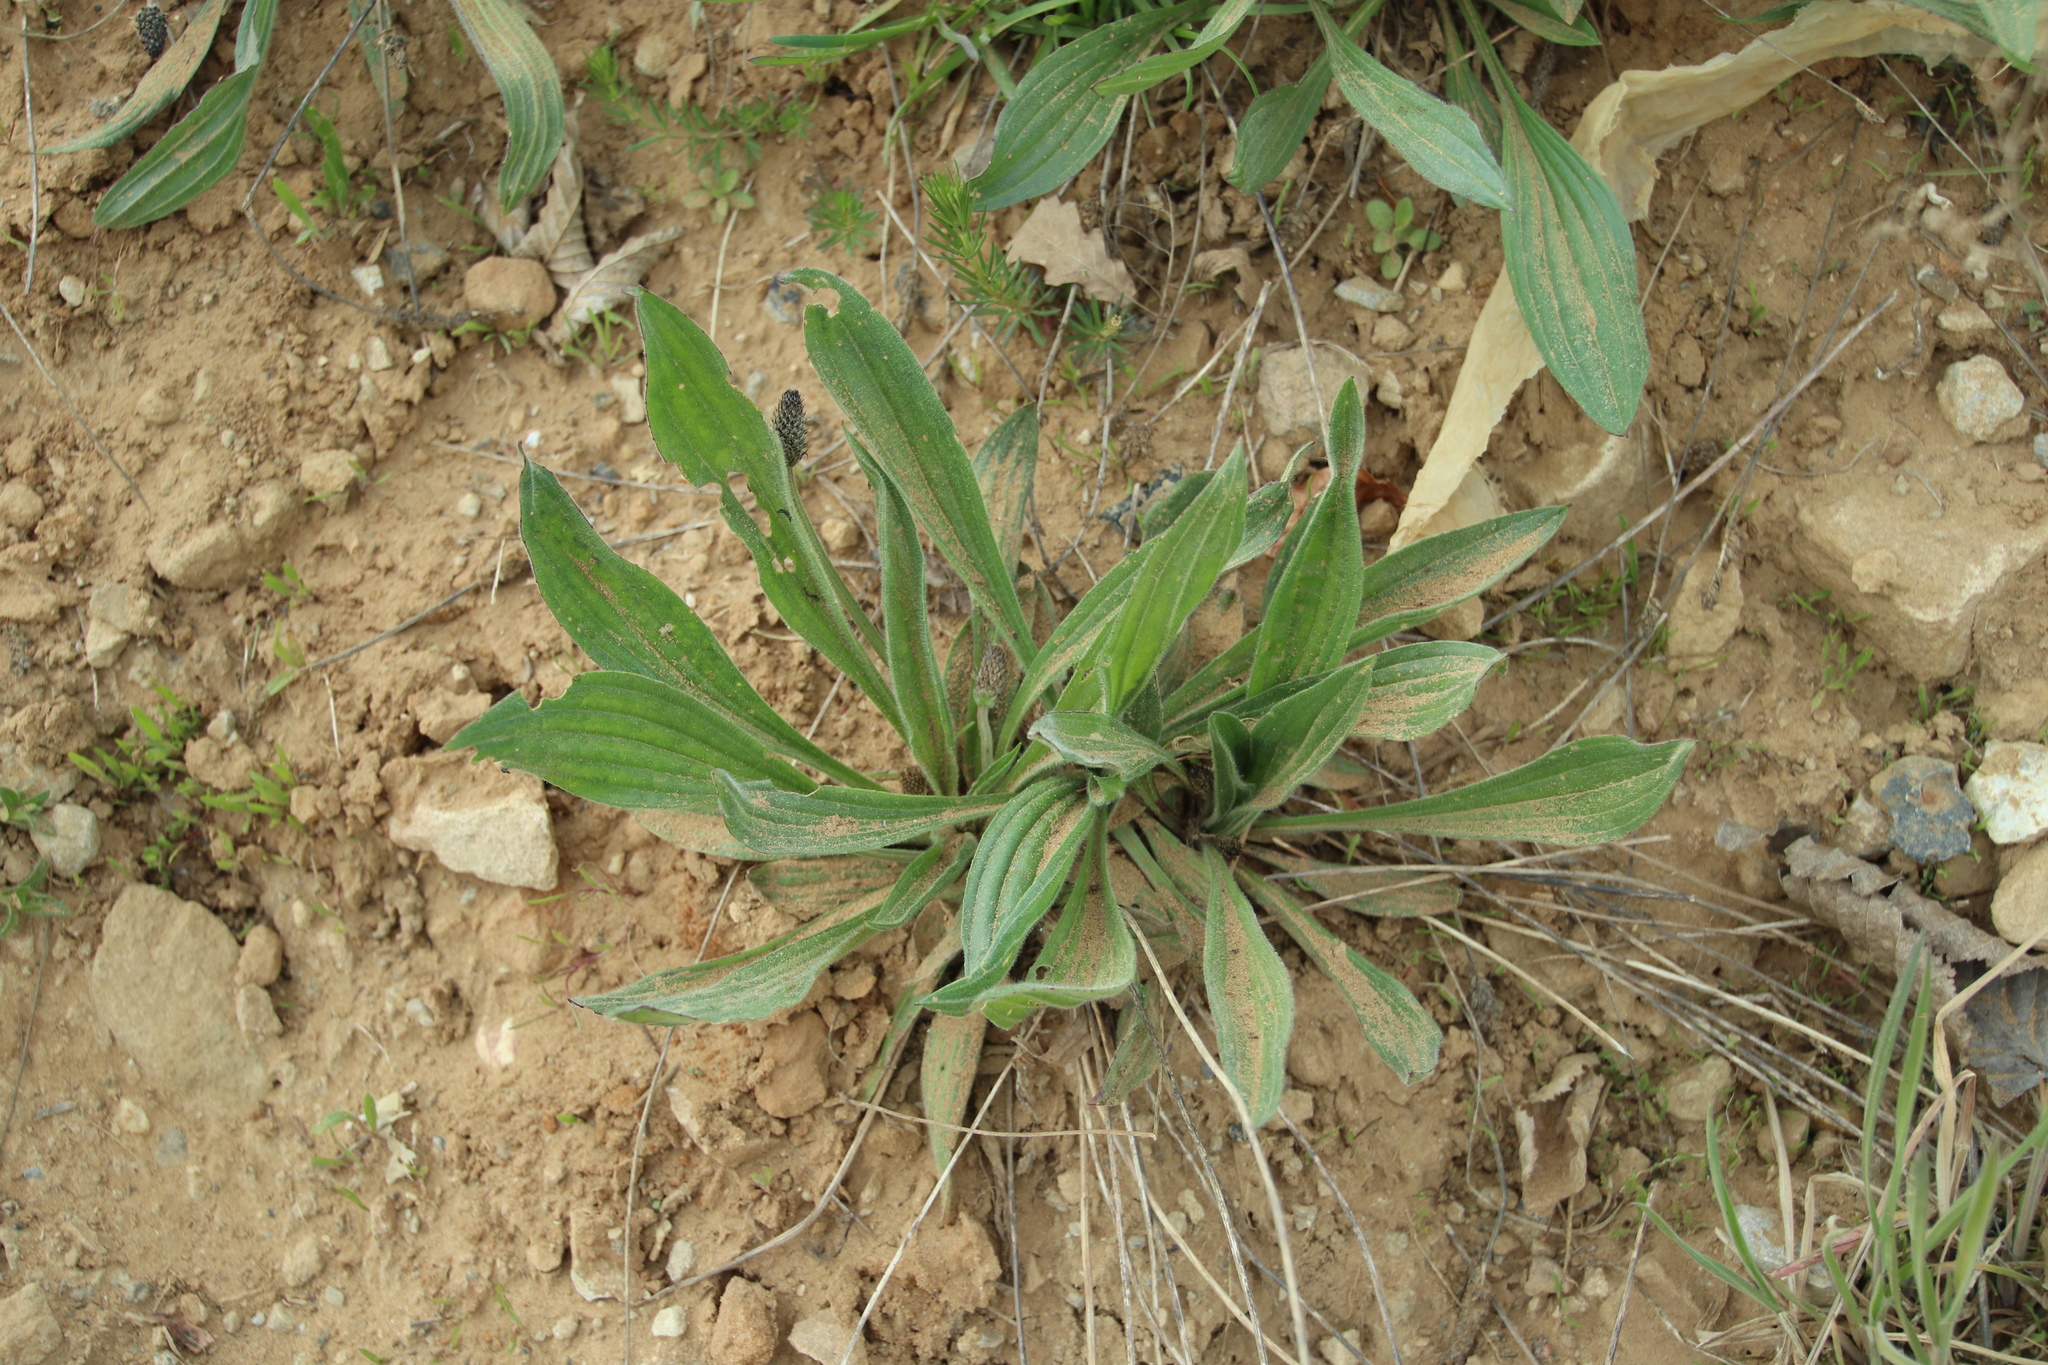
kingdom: Plantae
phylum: Tracheophyta
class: Magnoliopsida
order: Lamiales
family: Plantaginaceae
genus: Plantago
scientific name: Plantago lanceolata
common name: Ribwort plantain
